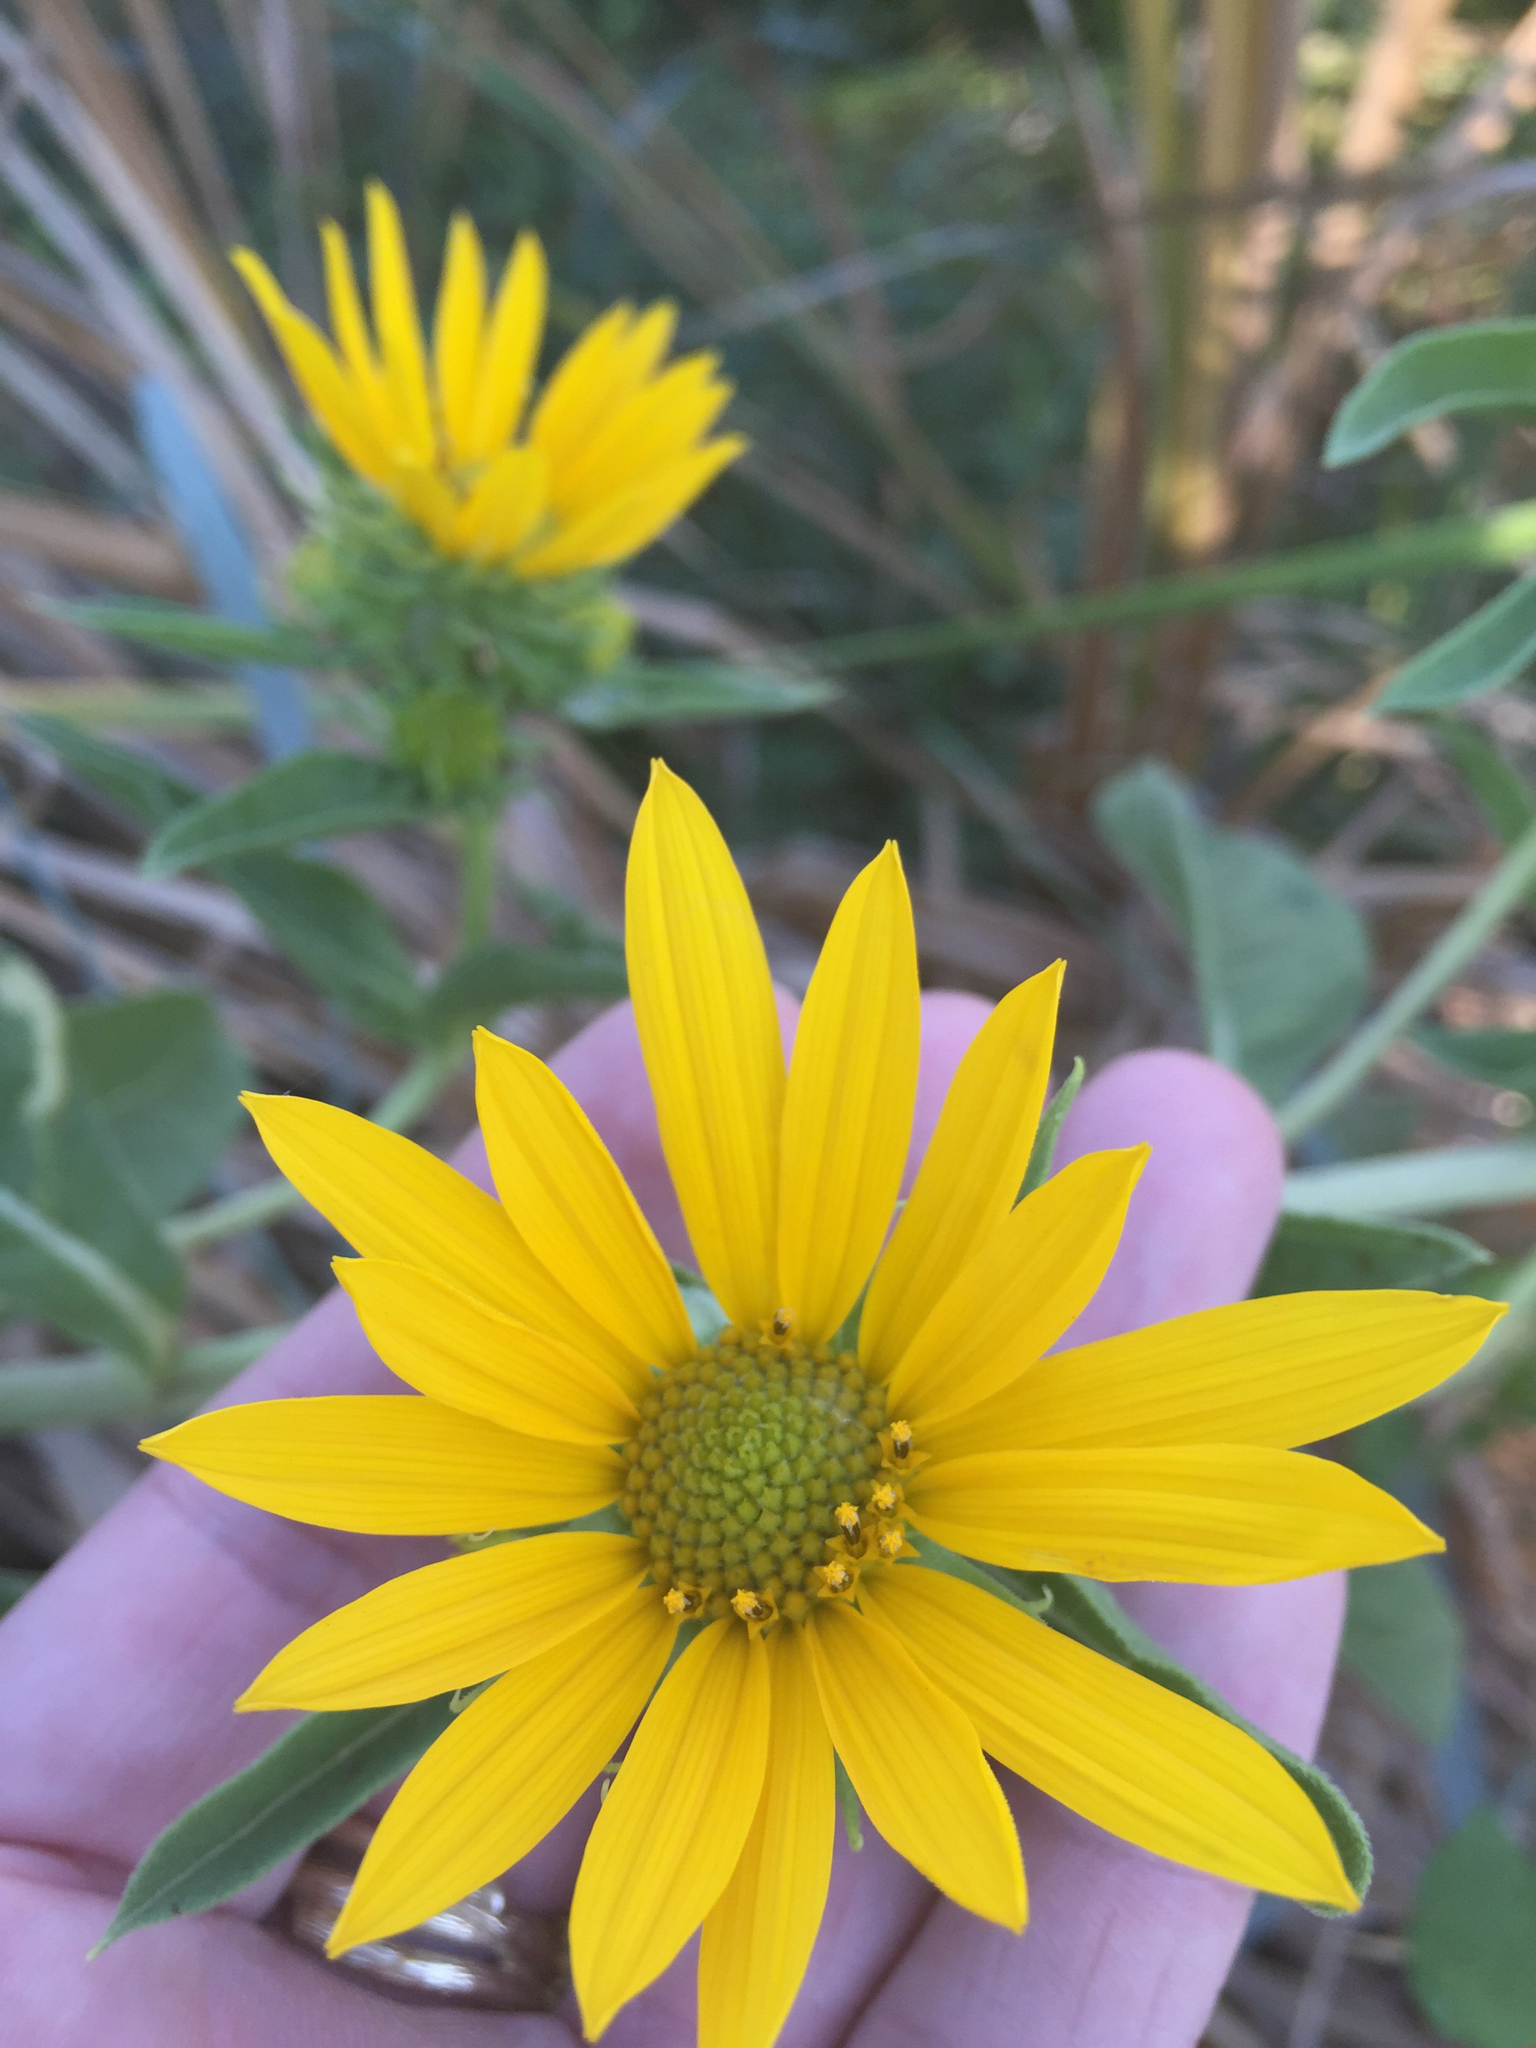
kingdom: Plantae
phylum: Tracheophyta
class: Magnoliopsida
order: Asterales
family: Asteraceae
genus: Helianthus
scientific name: Helianthus maximiliani
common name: Maximilian's sunflower
